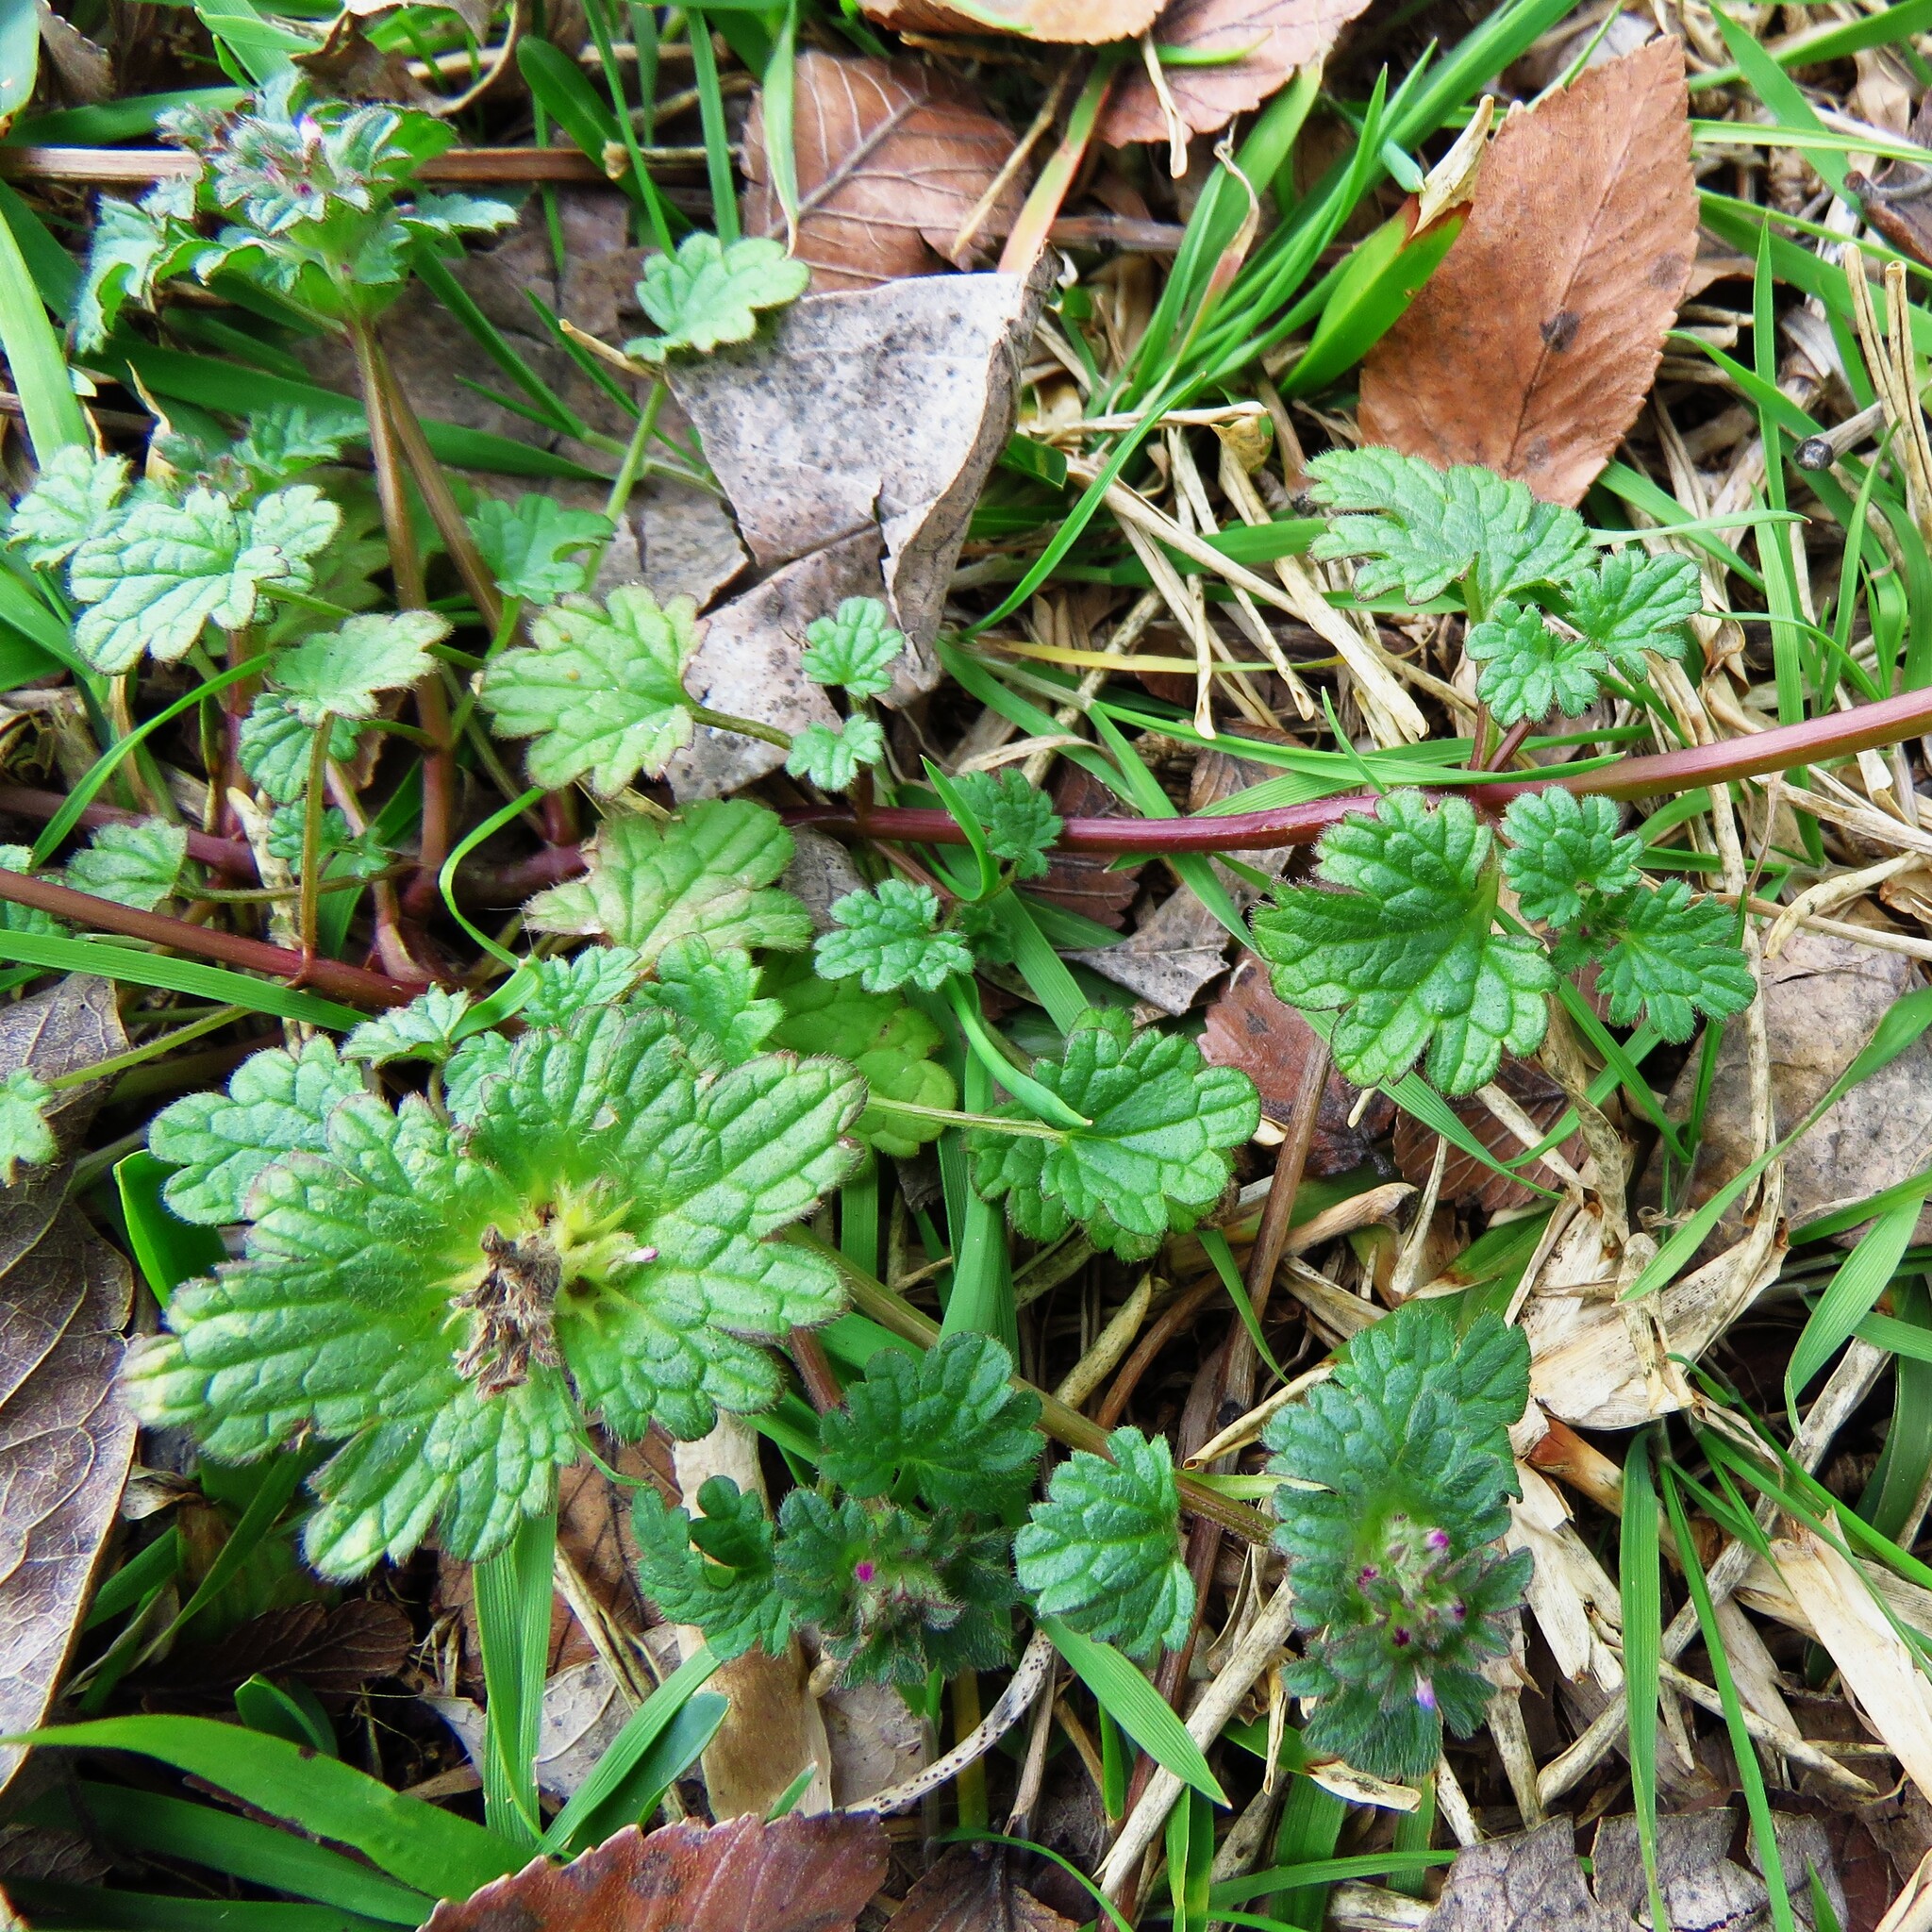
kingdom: Plantae
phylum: Tracheophyta
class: Magnoliopsida
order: Lamiales
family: Lamiaceae
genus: Lamium
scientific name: Lamium amplexicaule
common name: Henbit dead-nettle
